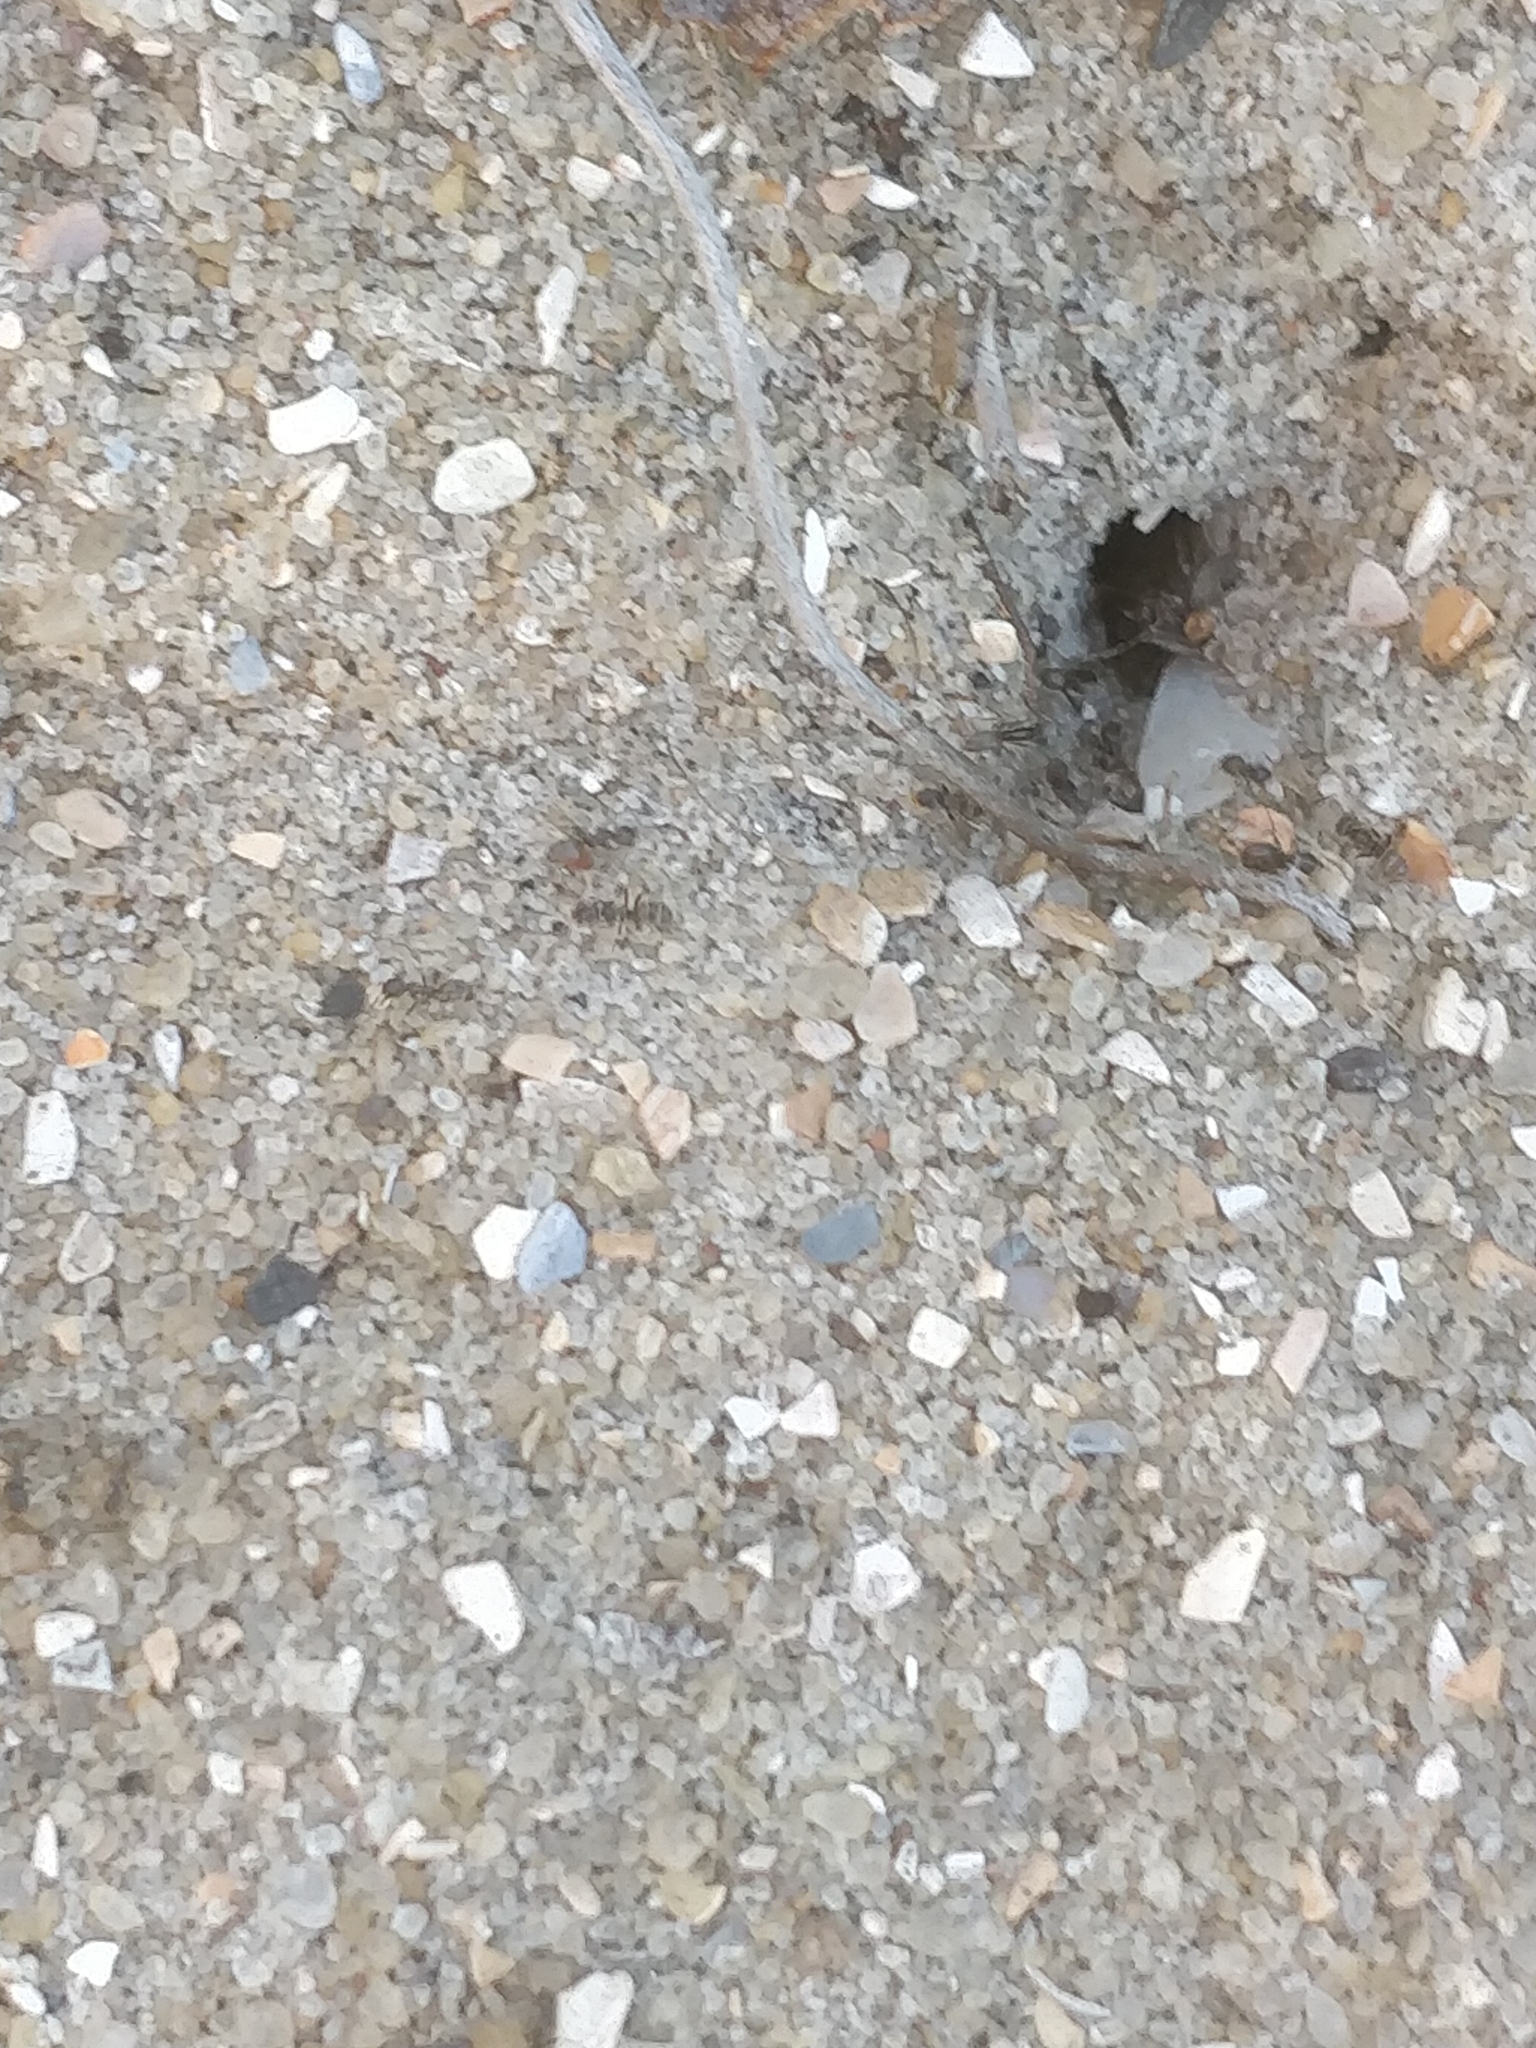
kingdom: Animalia
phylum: Arthropoda
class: Insecta
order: Hymenoptera
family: Formicidae
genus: Forelius
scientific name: Forelius pruinosus
